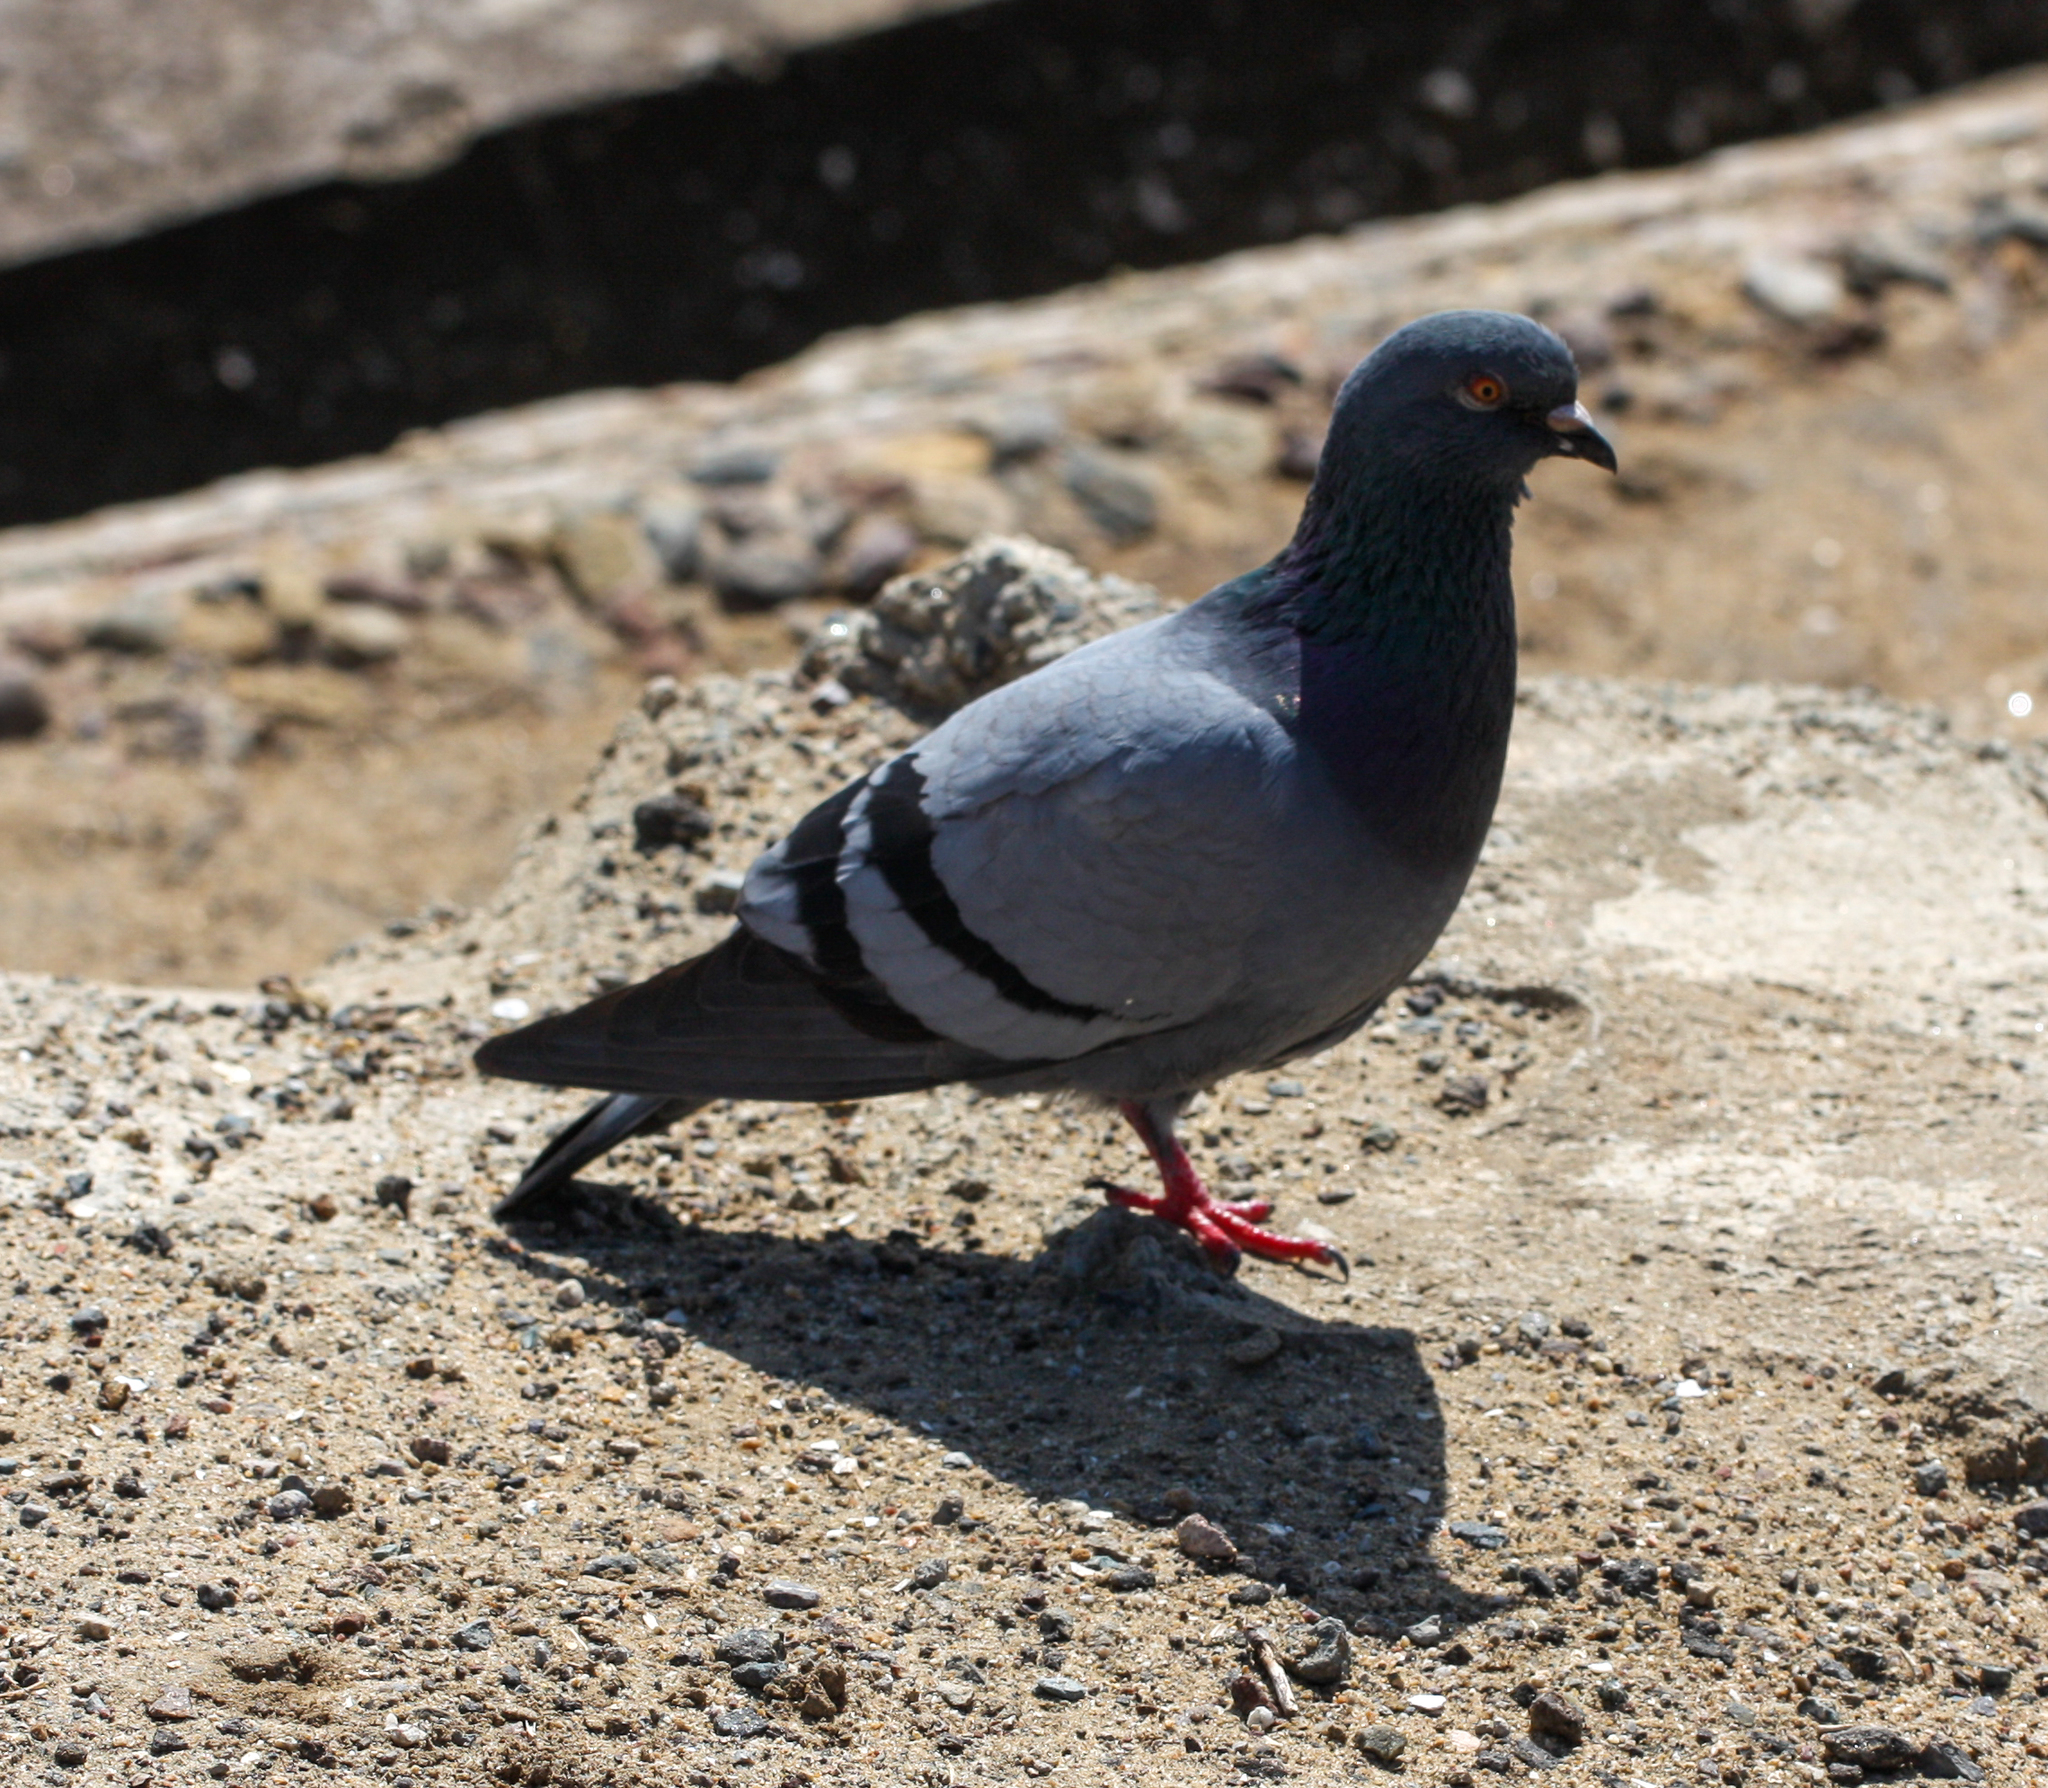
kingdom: Animalia
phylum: Chordata
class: Aves
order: Columbiformes
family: Columbidae
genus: Columba
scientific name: Columba livia
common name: Rock pigeon
